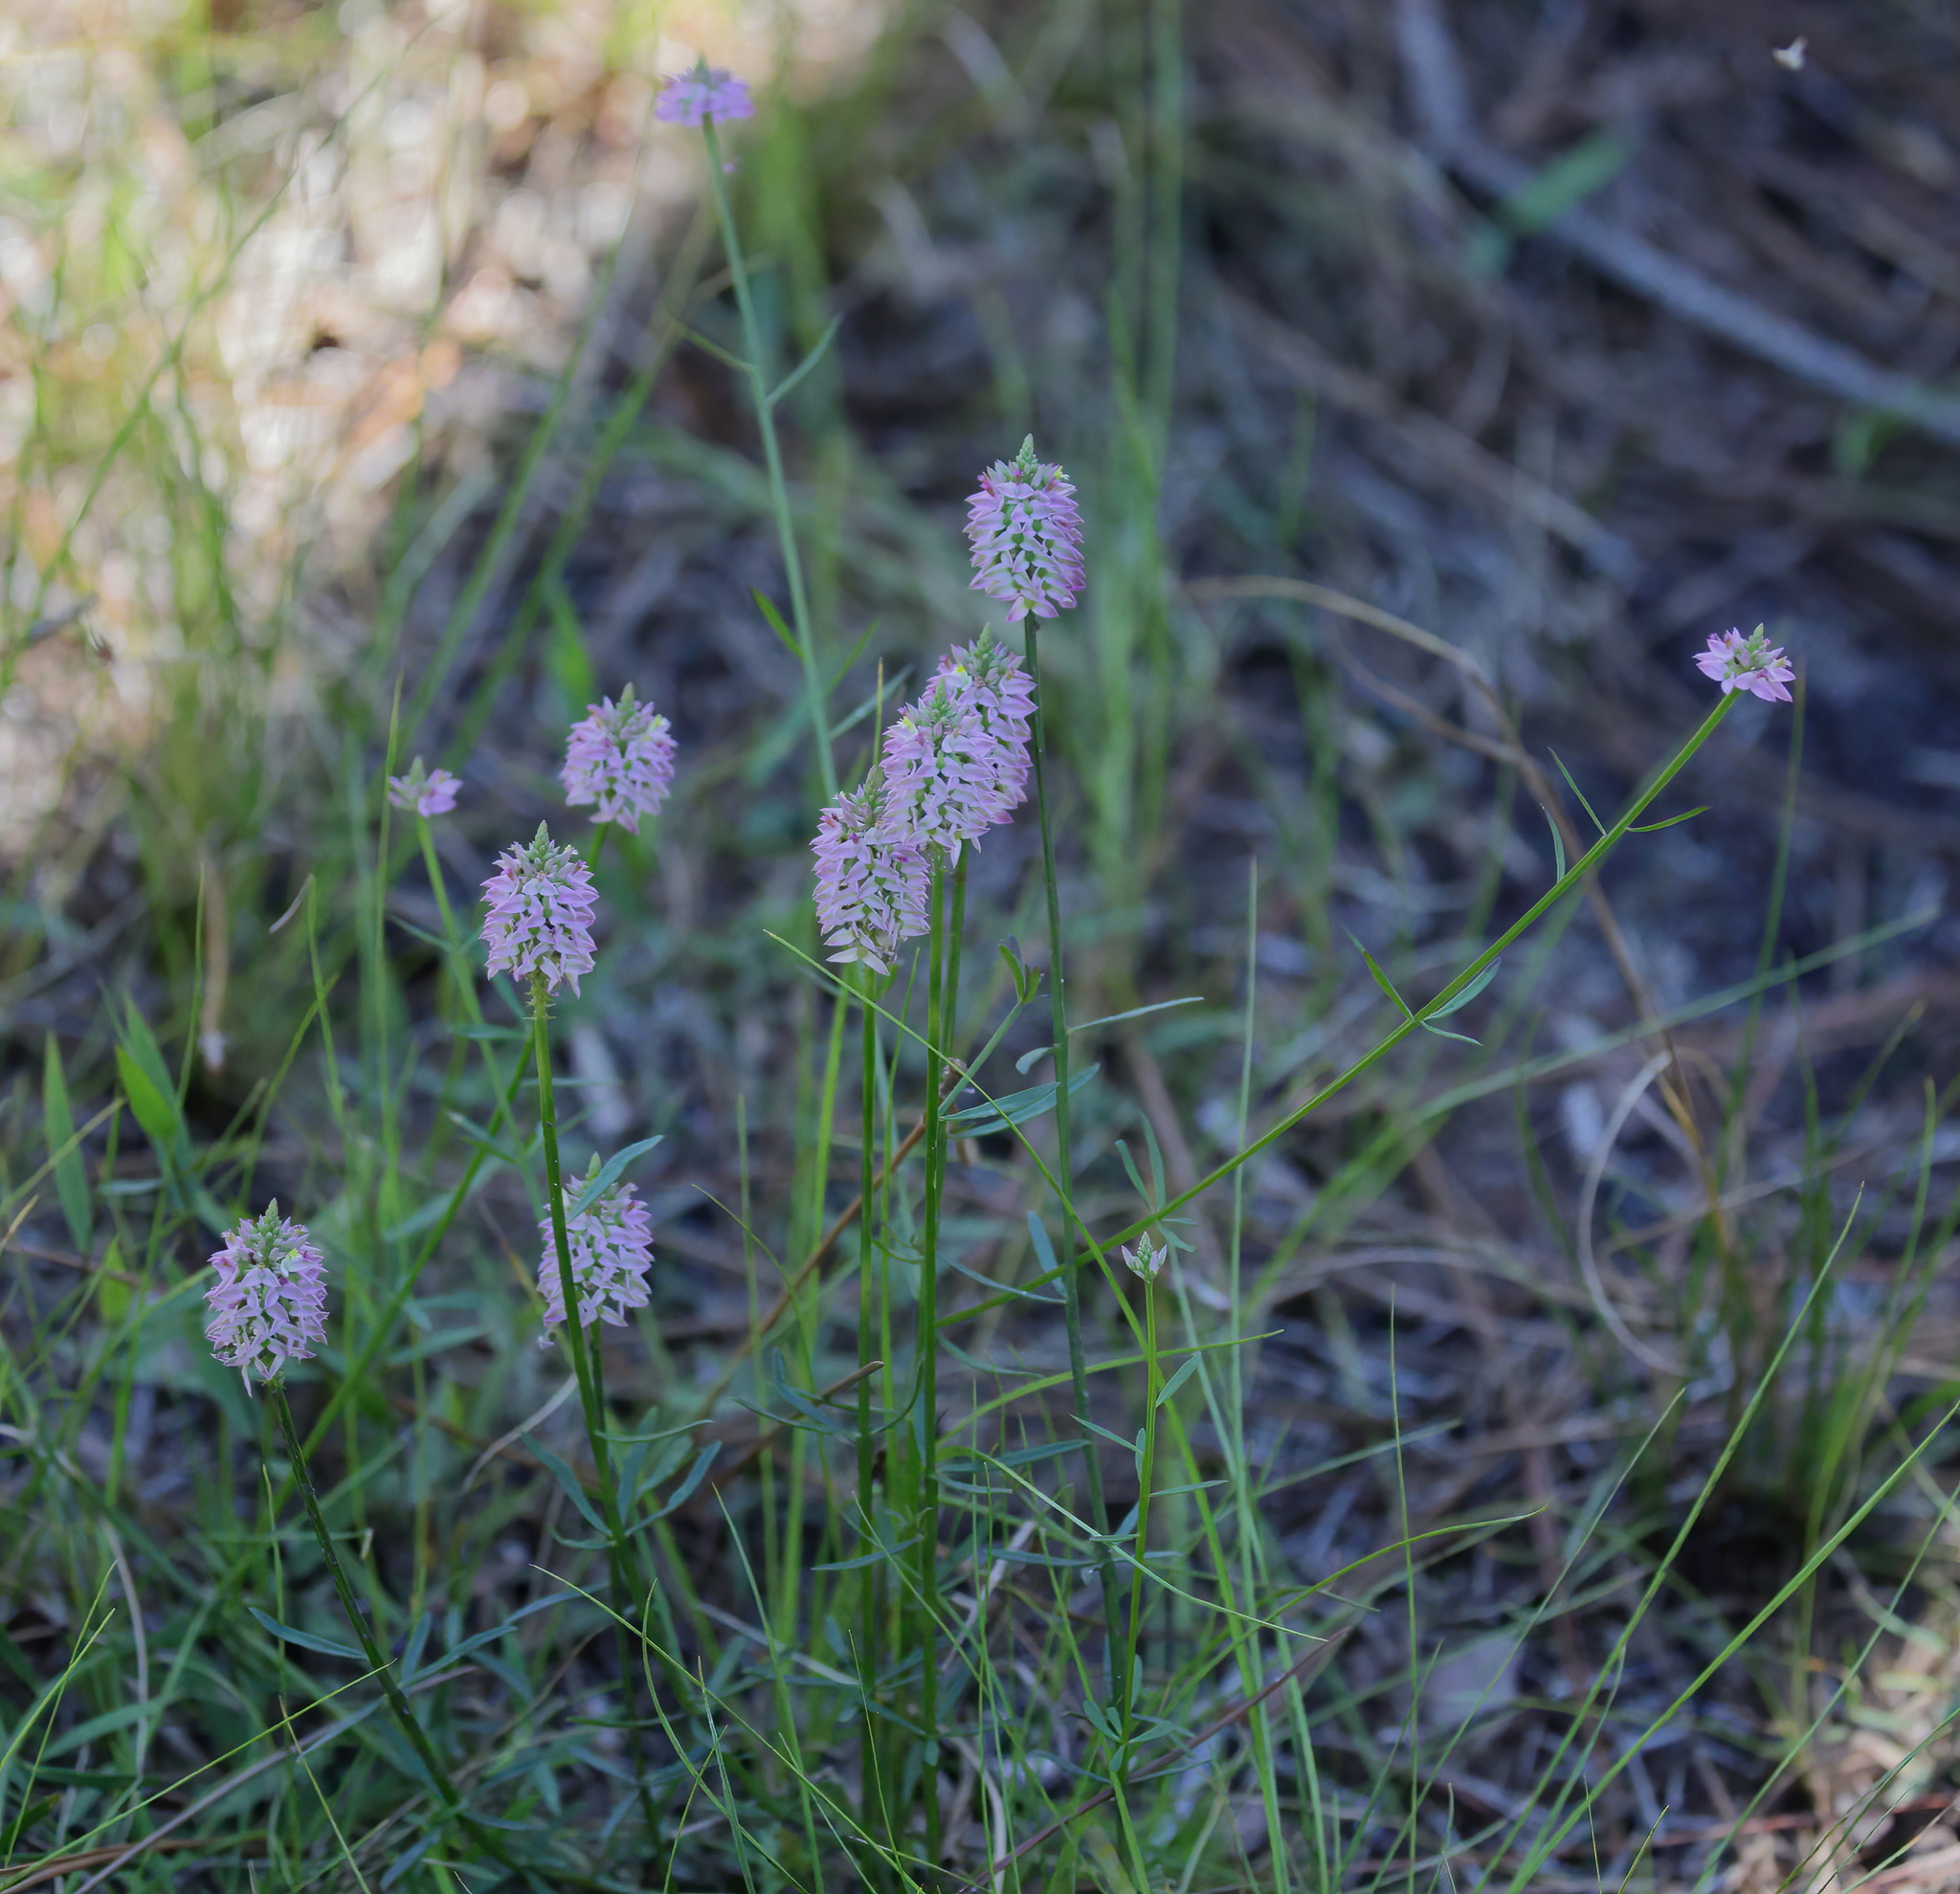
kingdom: Plantae
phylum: Tracheophyta
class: Magnoliopsida
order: Fabales
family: Polygalaceae
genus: Polygala
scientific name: Polygala cruciata
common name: Drumheads
